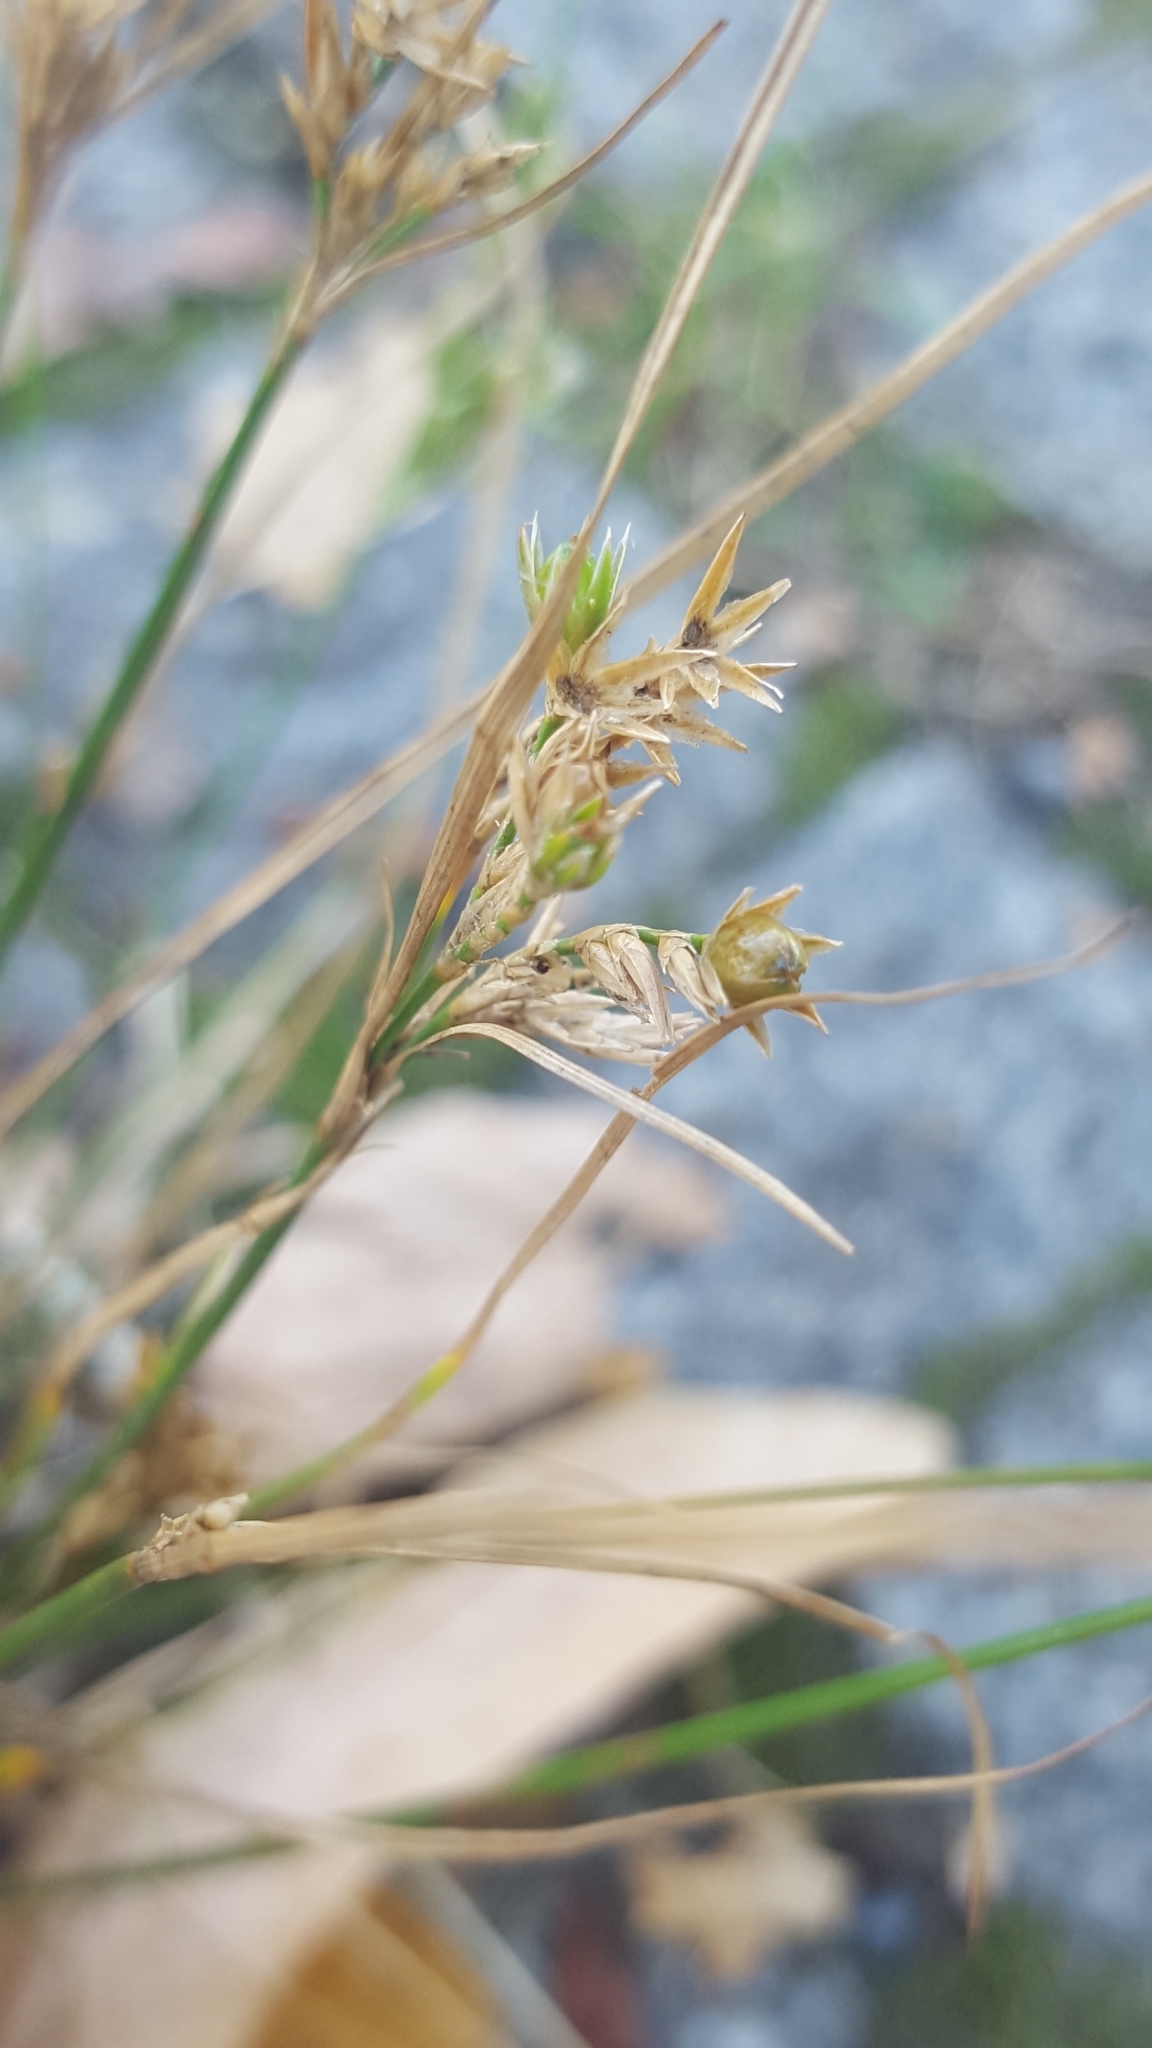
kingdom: Plantae
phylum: Tracheophyta
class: Liliopsida
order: Poales
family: Juncaceae
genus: Juncus
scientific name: Juncus tenuis
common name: Slender rush
